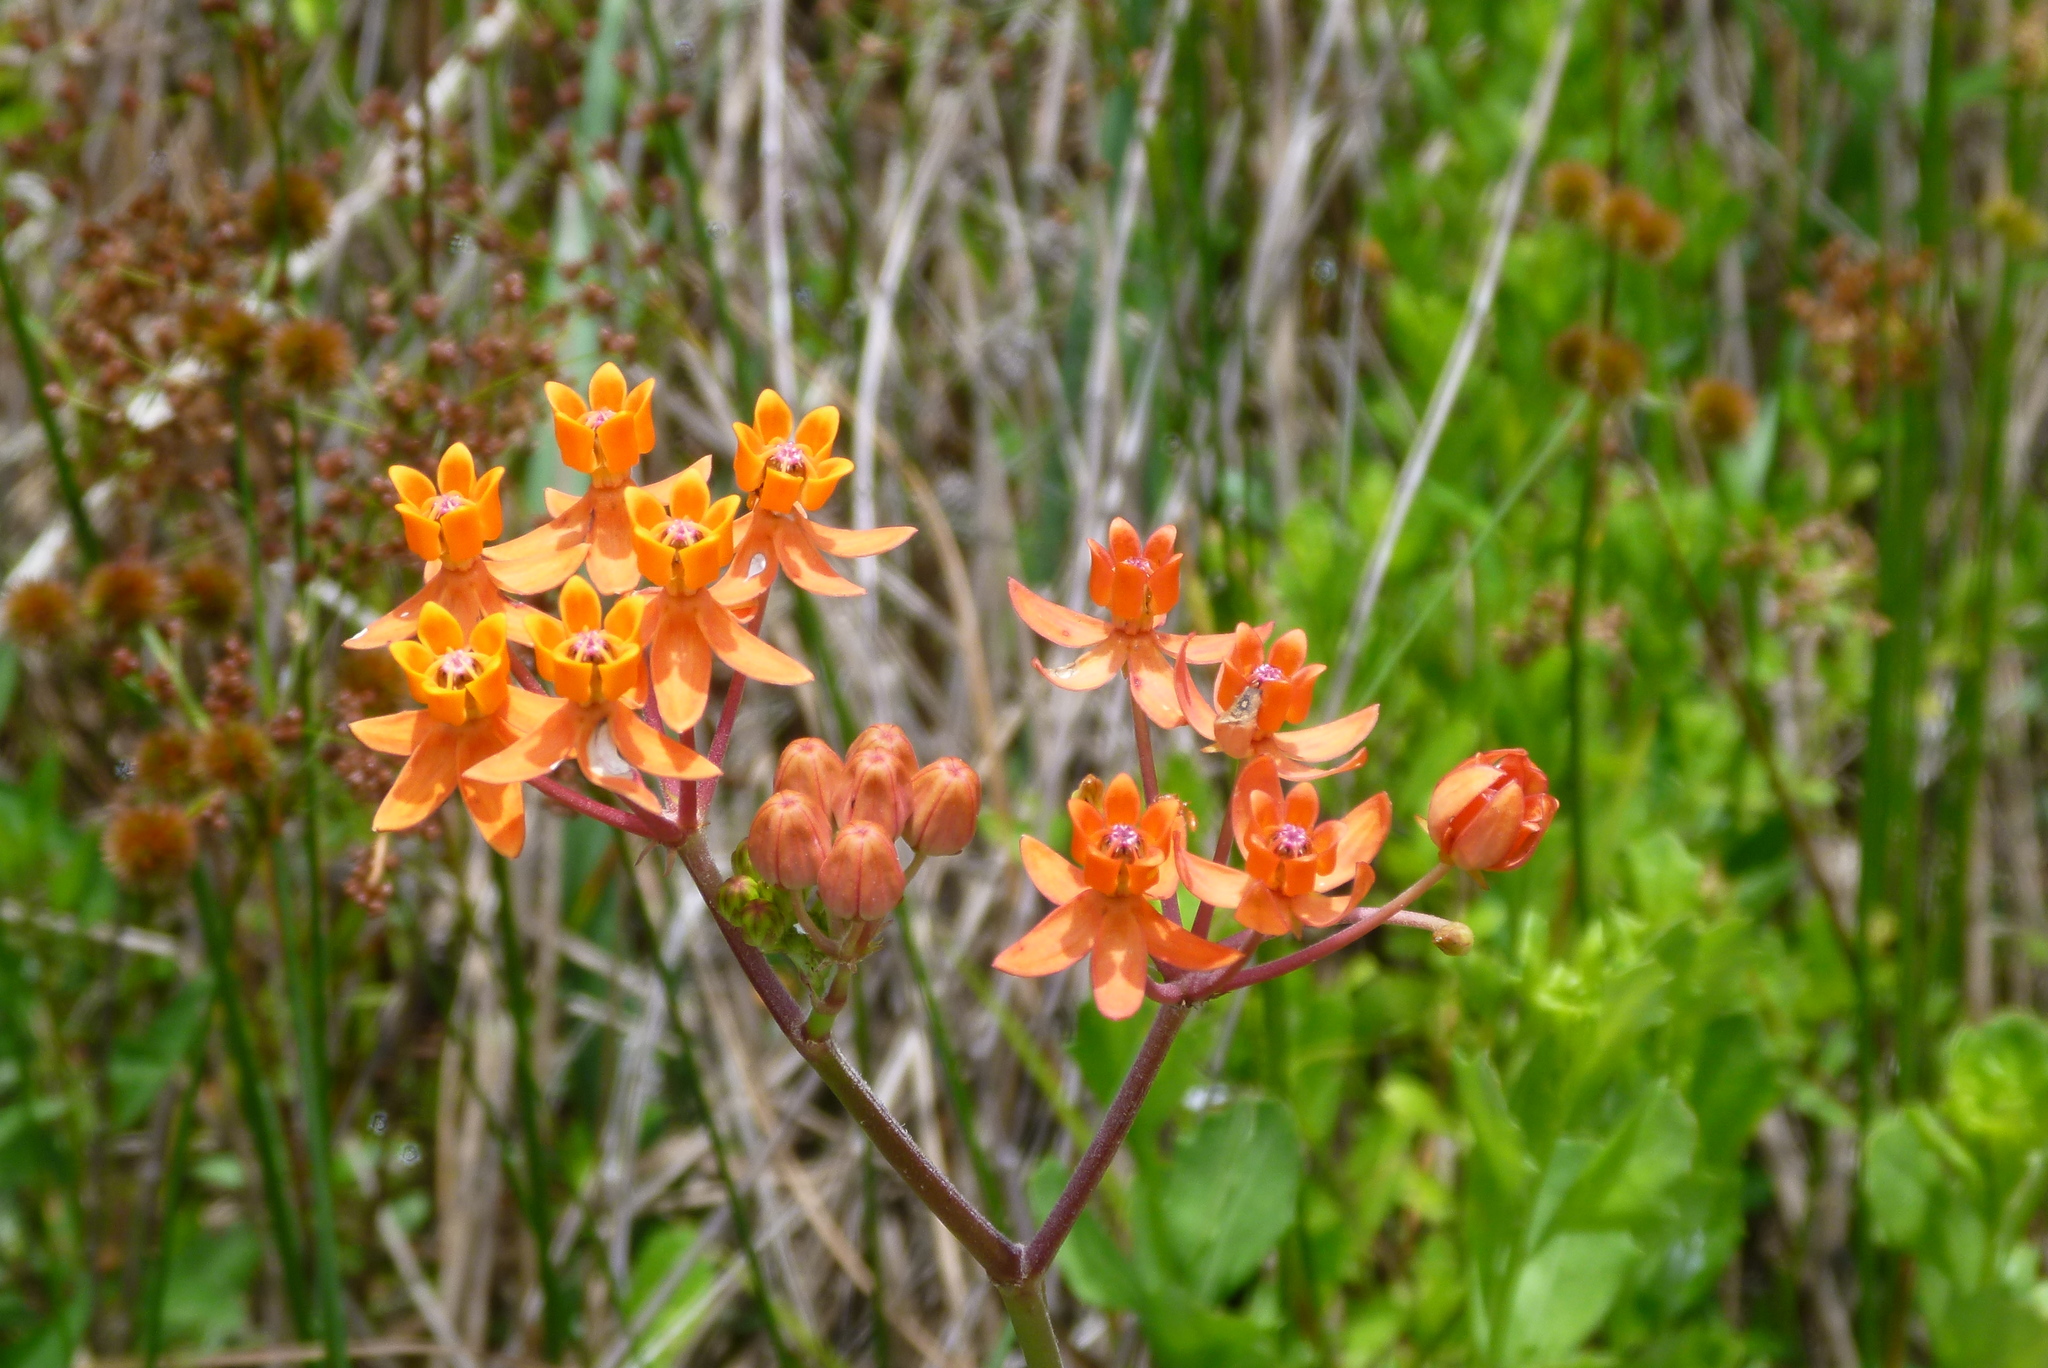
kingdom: Plantae
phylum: Tracheophyta
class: Magnoliopsida
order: Gentianales
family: Apocynaceae
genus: Asclepias
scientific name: Asclepias lanceolata
